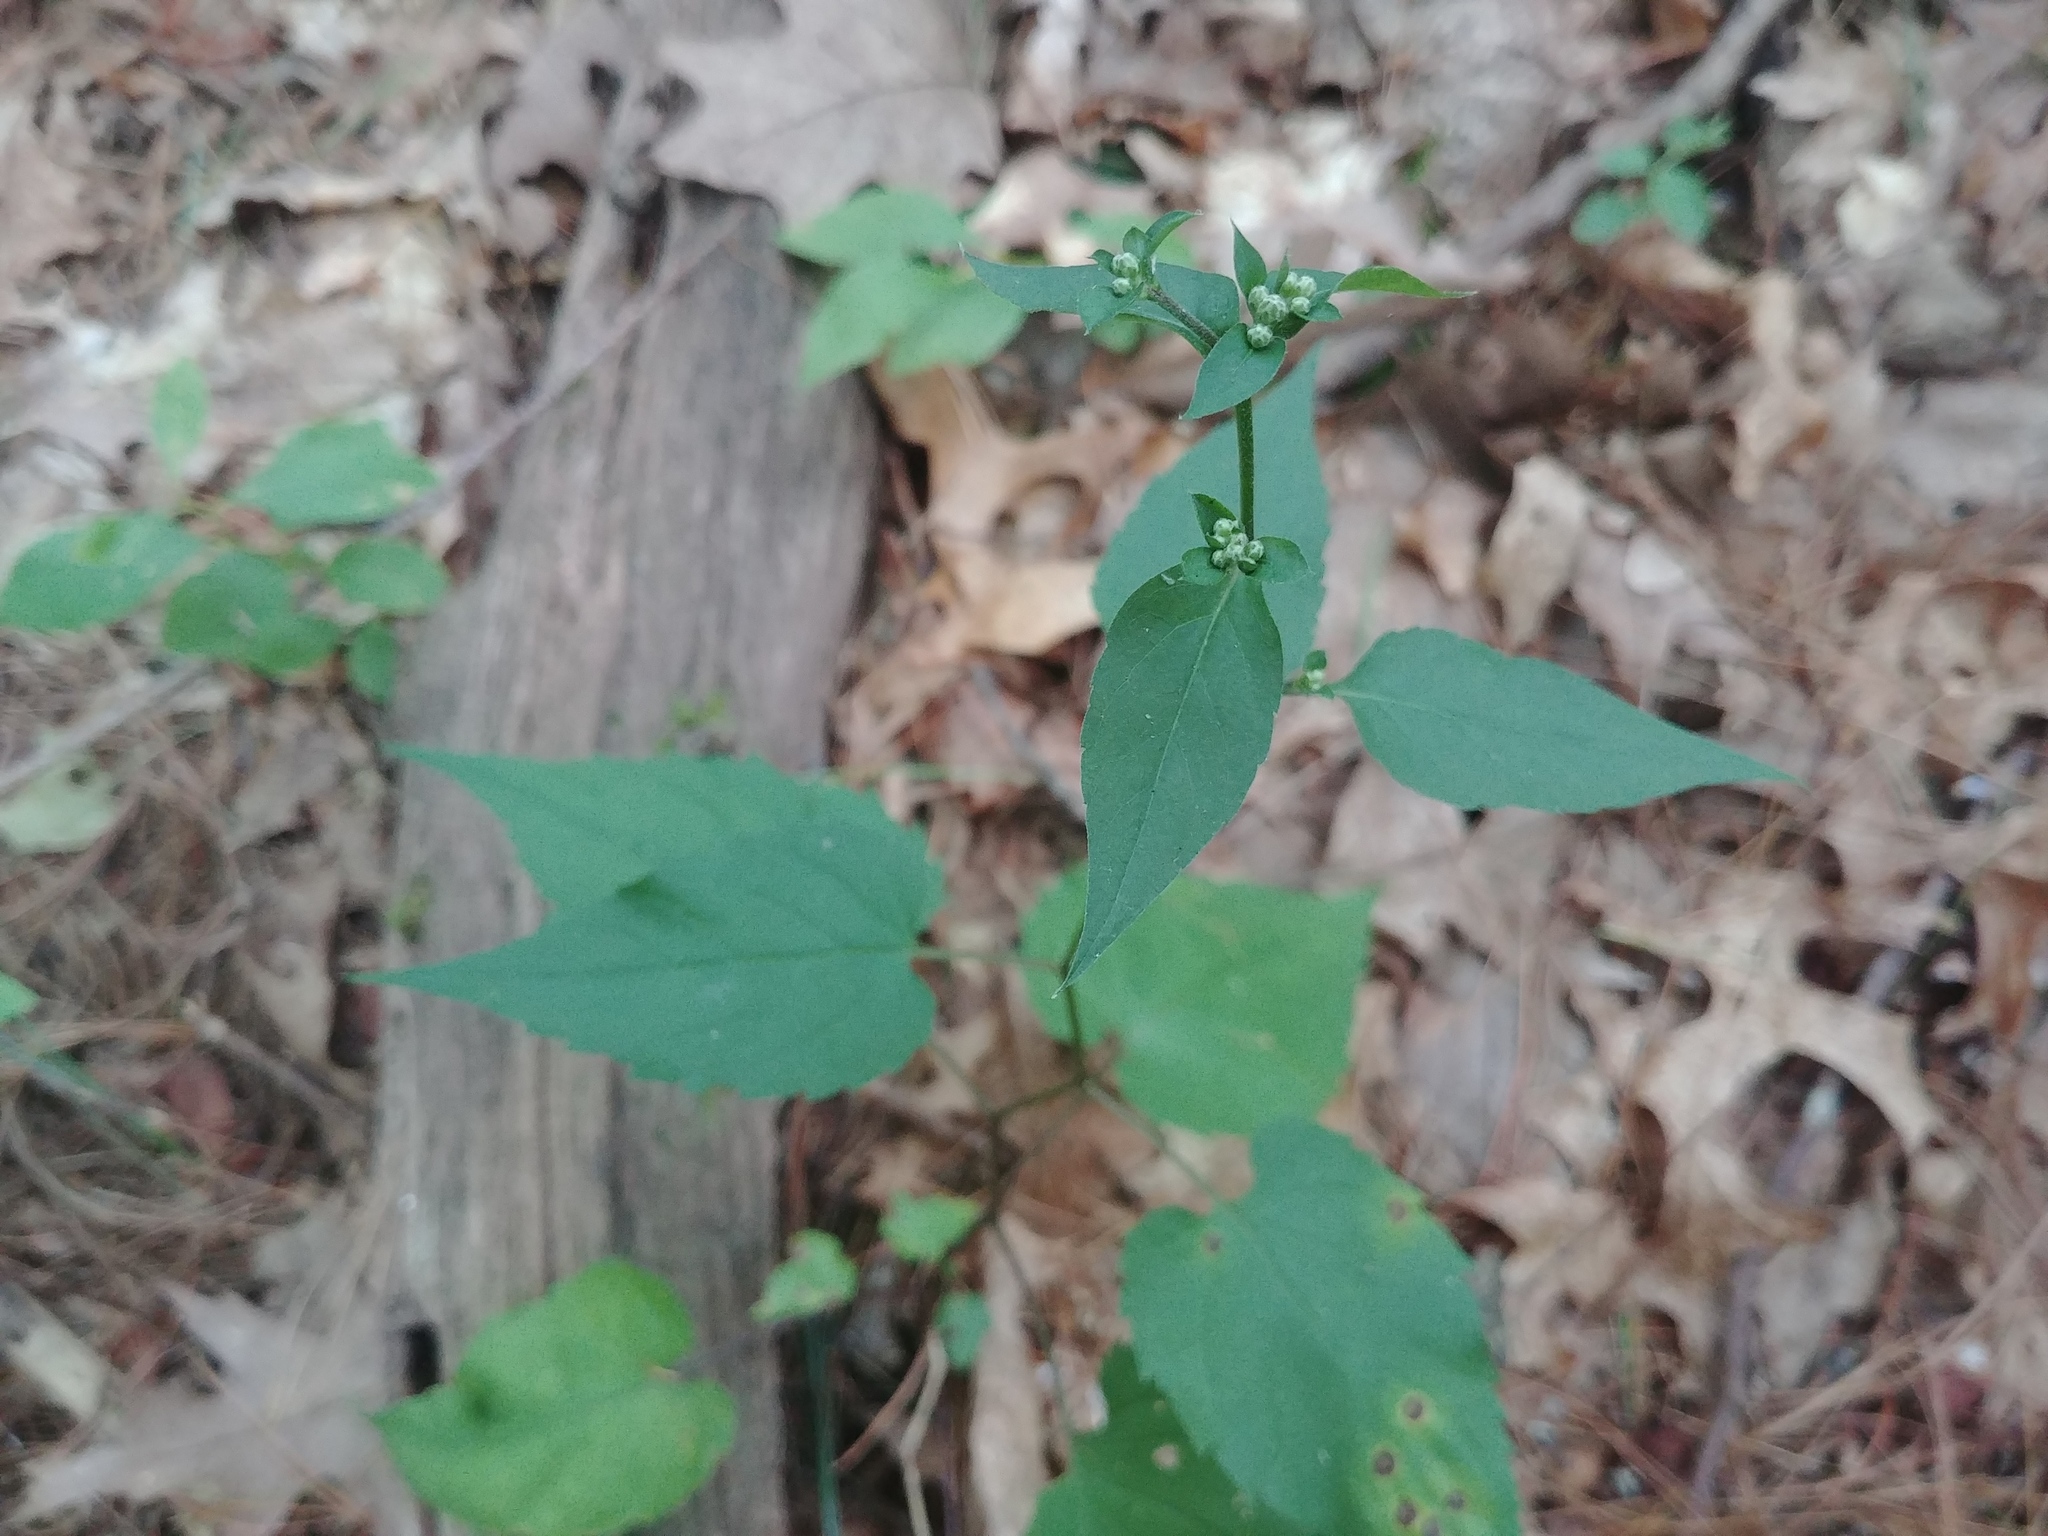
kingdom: Plantae
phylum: Tracheophyta
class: Magnoliopsida
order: Asterales
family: Asteraceae
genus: Eurybia
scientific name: Eurybia divaricata
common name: White wood aster
